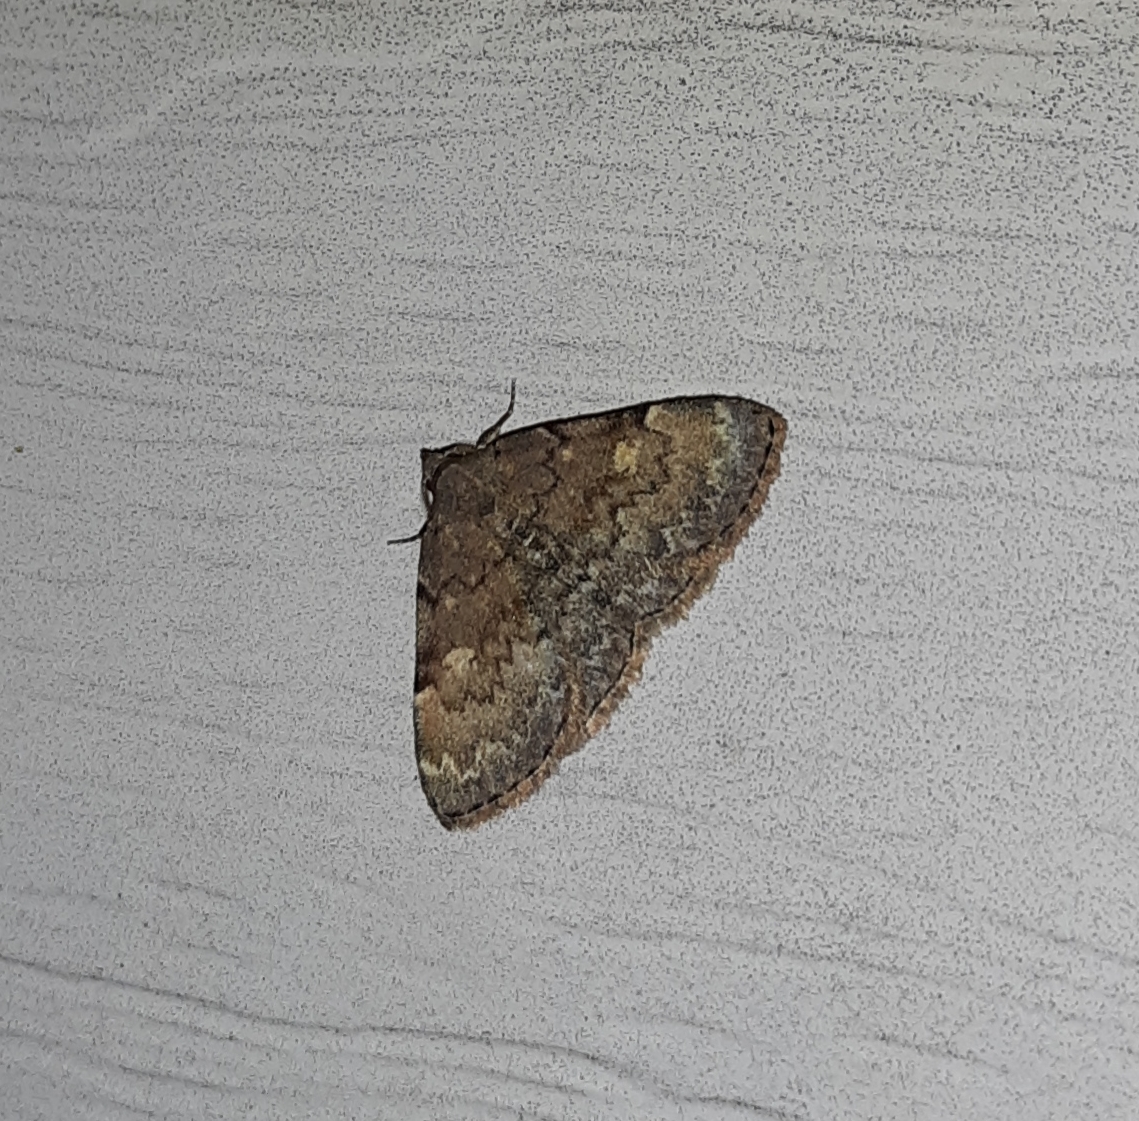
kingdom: Animalia
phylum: Arthropoda
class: Insecta
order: Lepidoptera
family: Erebidae
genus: Idia
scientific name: Idia aemula
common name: Common idia moth
